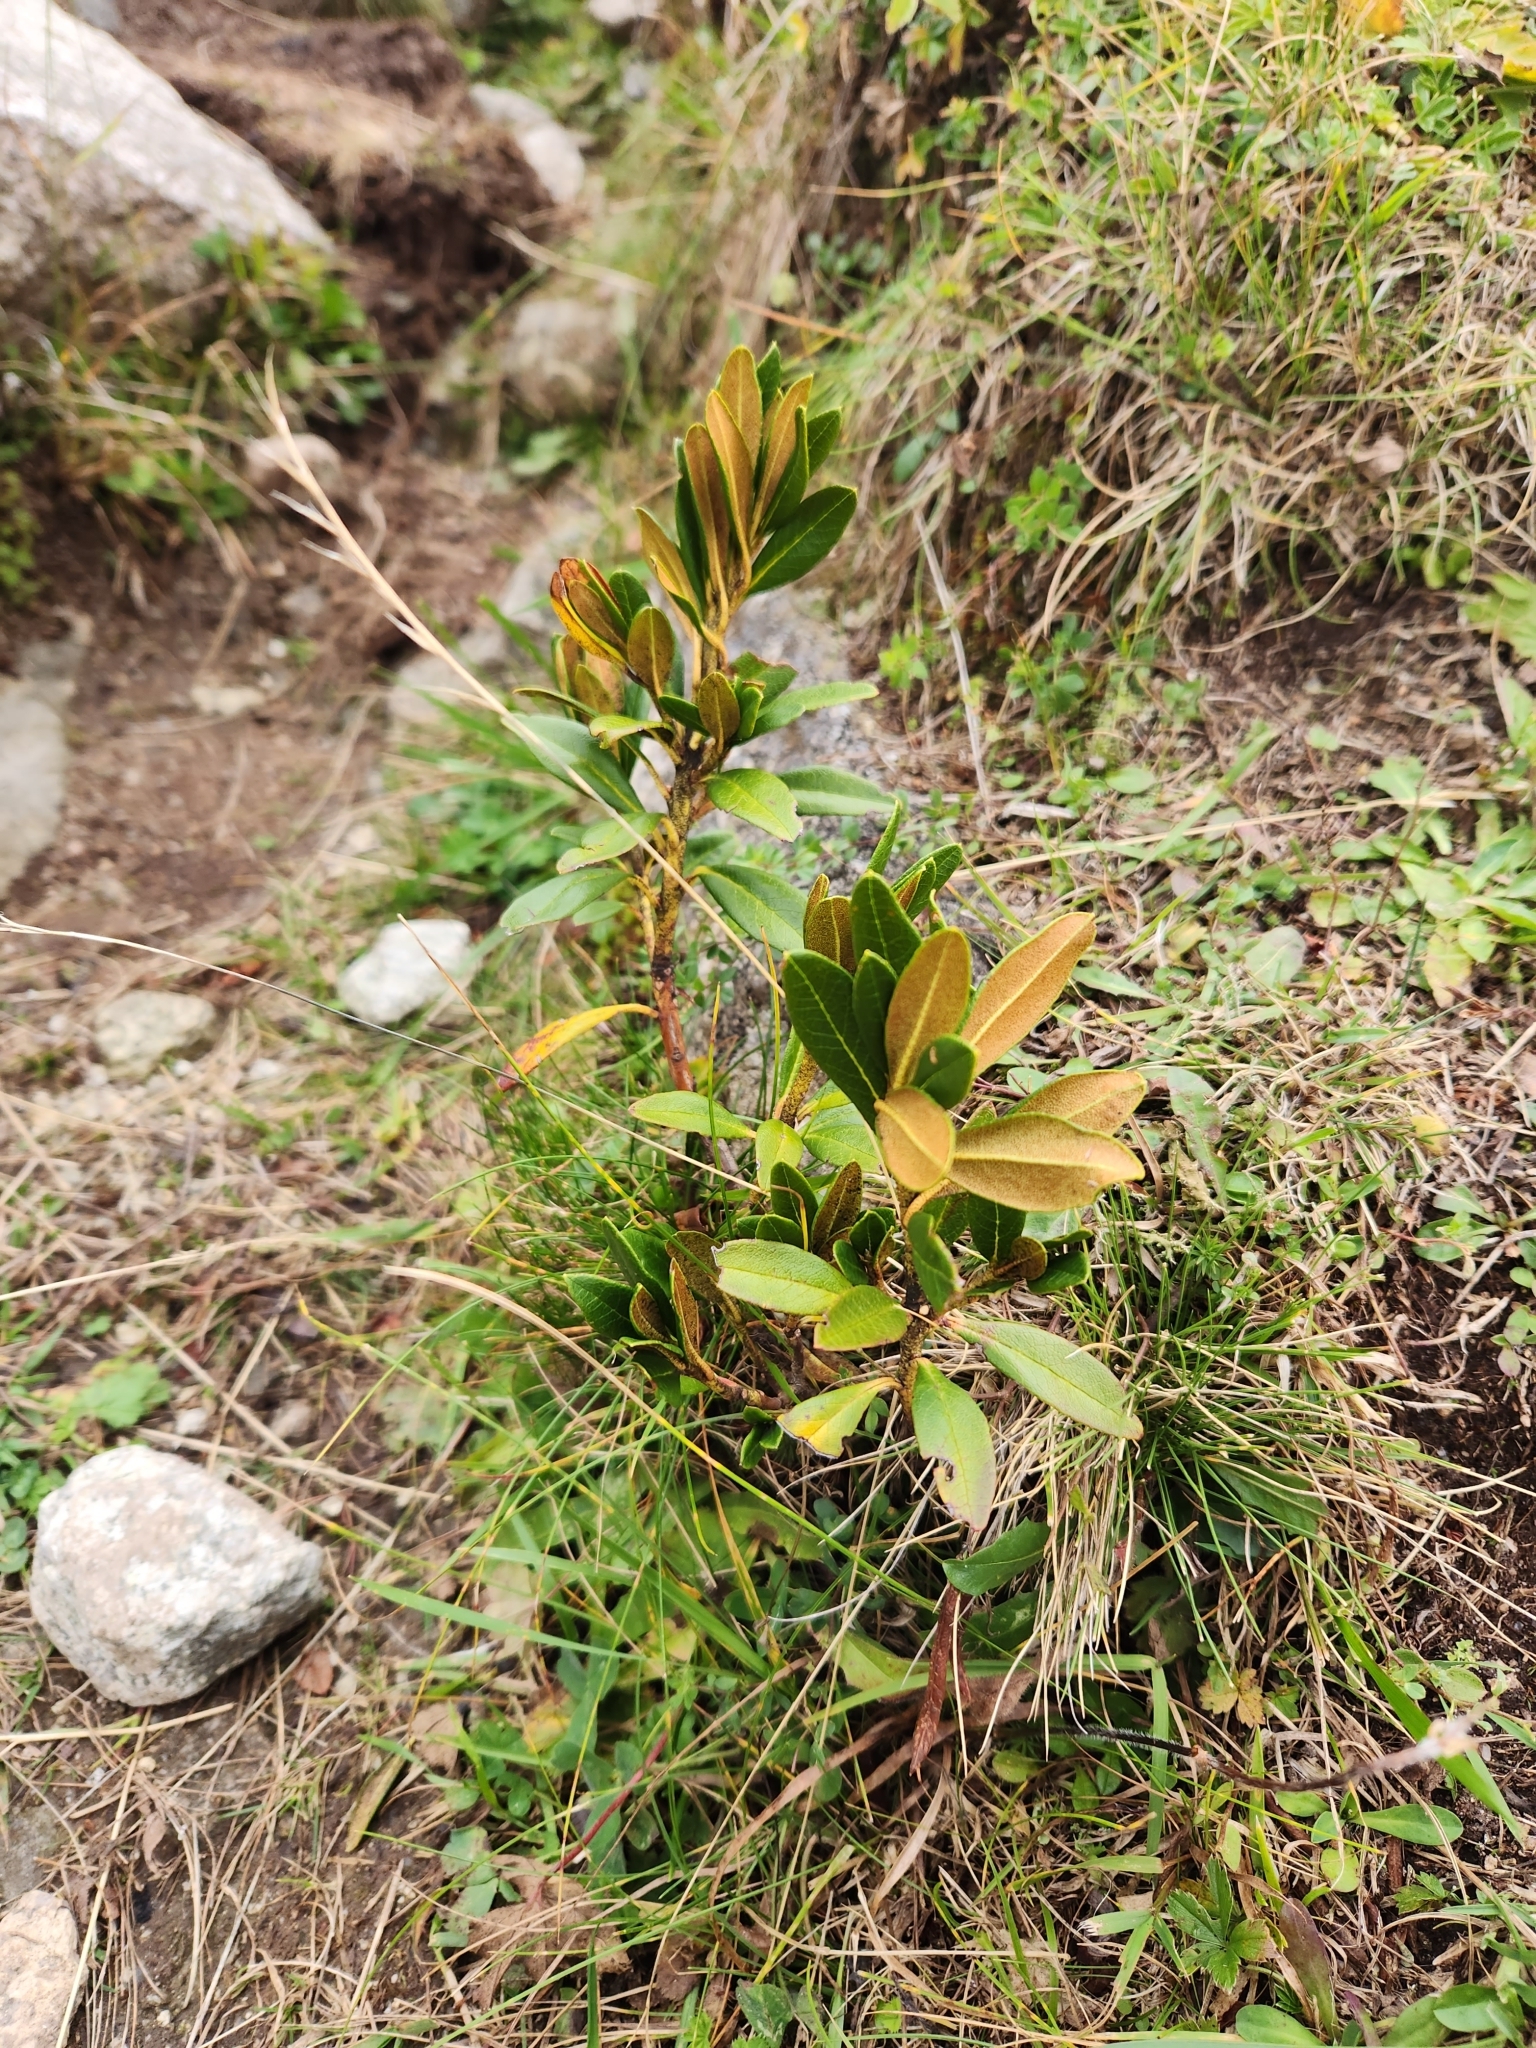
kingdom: Plantae
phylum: Tracheophyta
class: Magnoliopsida
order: Ericales
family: Ericaceae
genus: Rhododendron
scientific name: Rhododendron ferrugineum
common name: Alpenrose
